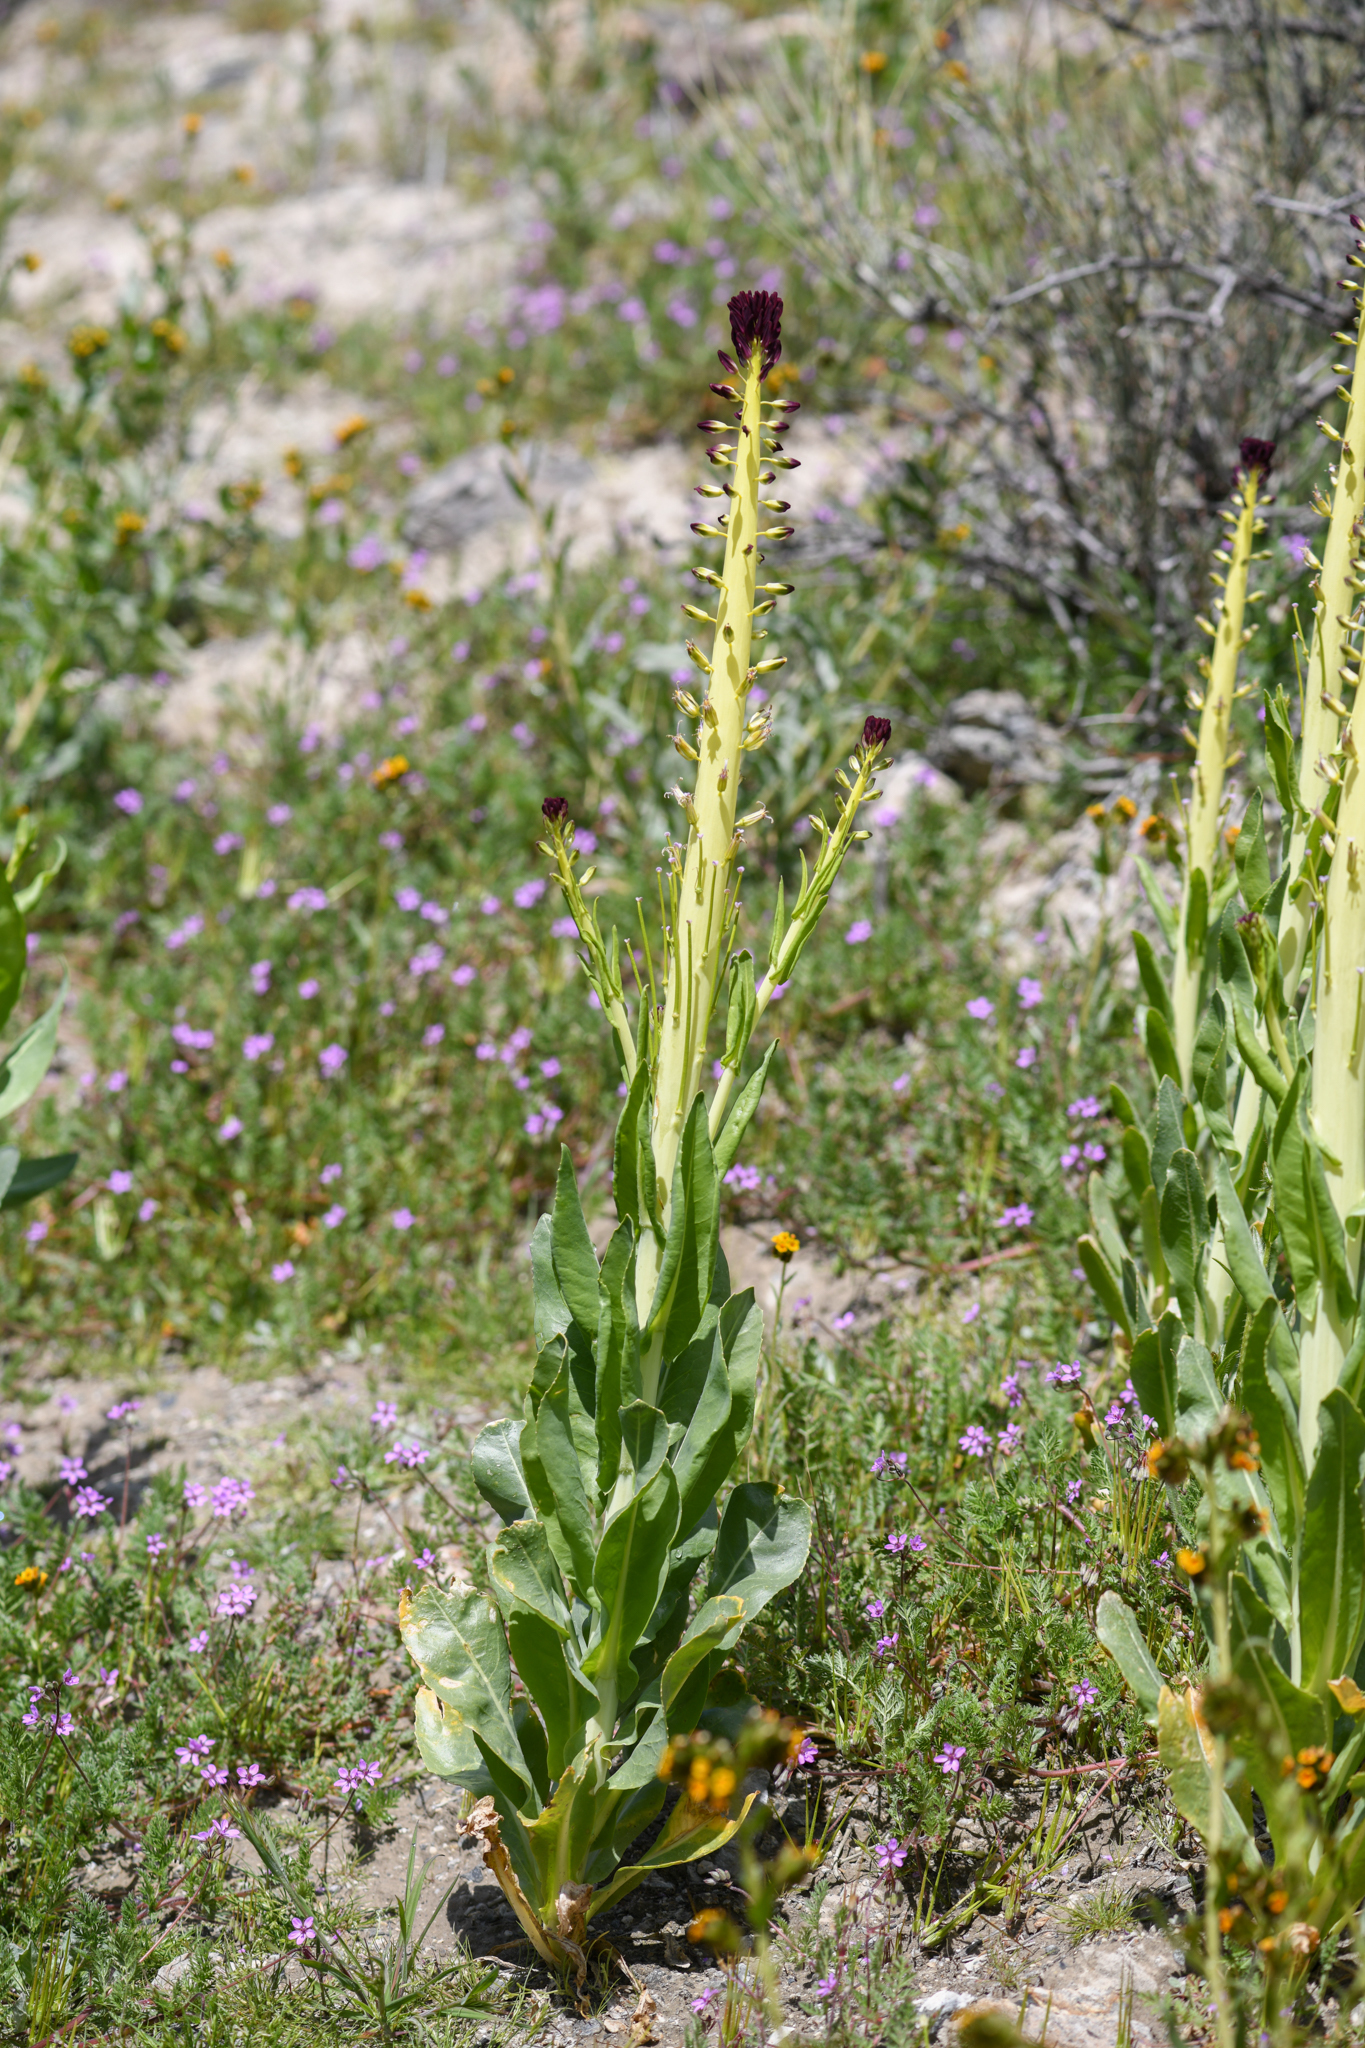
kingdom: Plantae
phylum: Tracheophyta
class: Magnoliopsida
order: Brassicales
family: Brassicaceae
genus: Streptanthus
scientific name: Streptanthus inflatus
